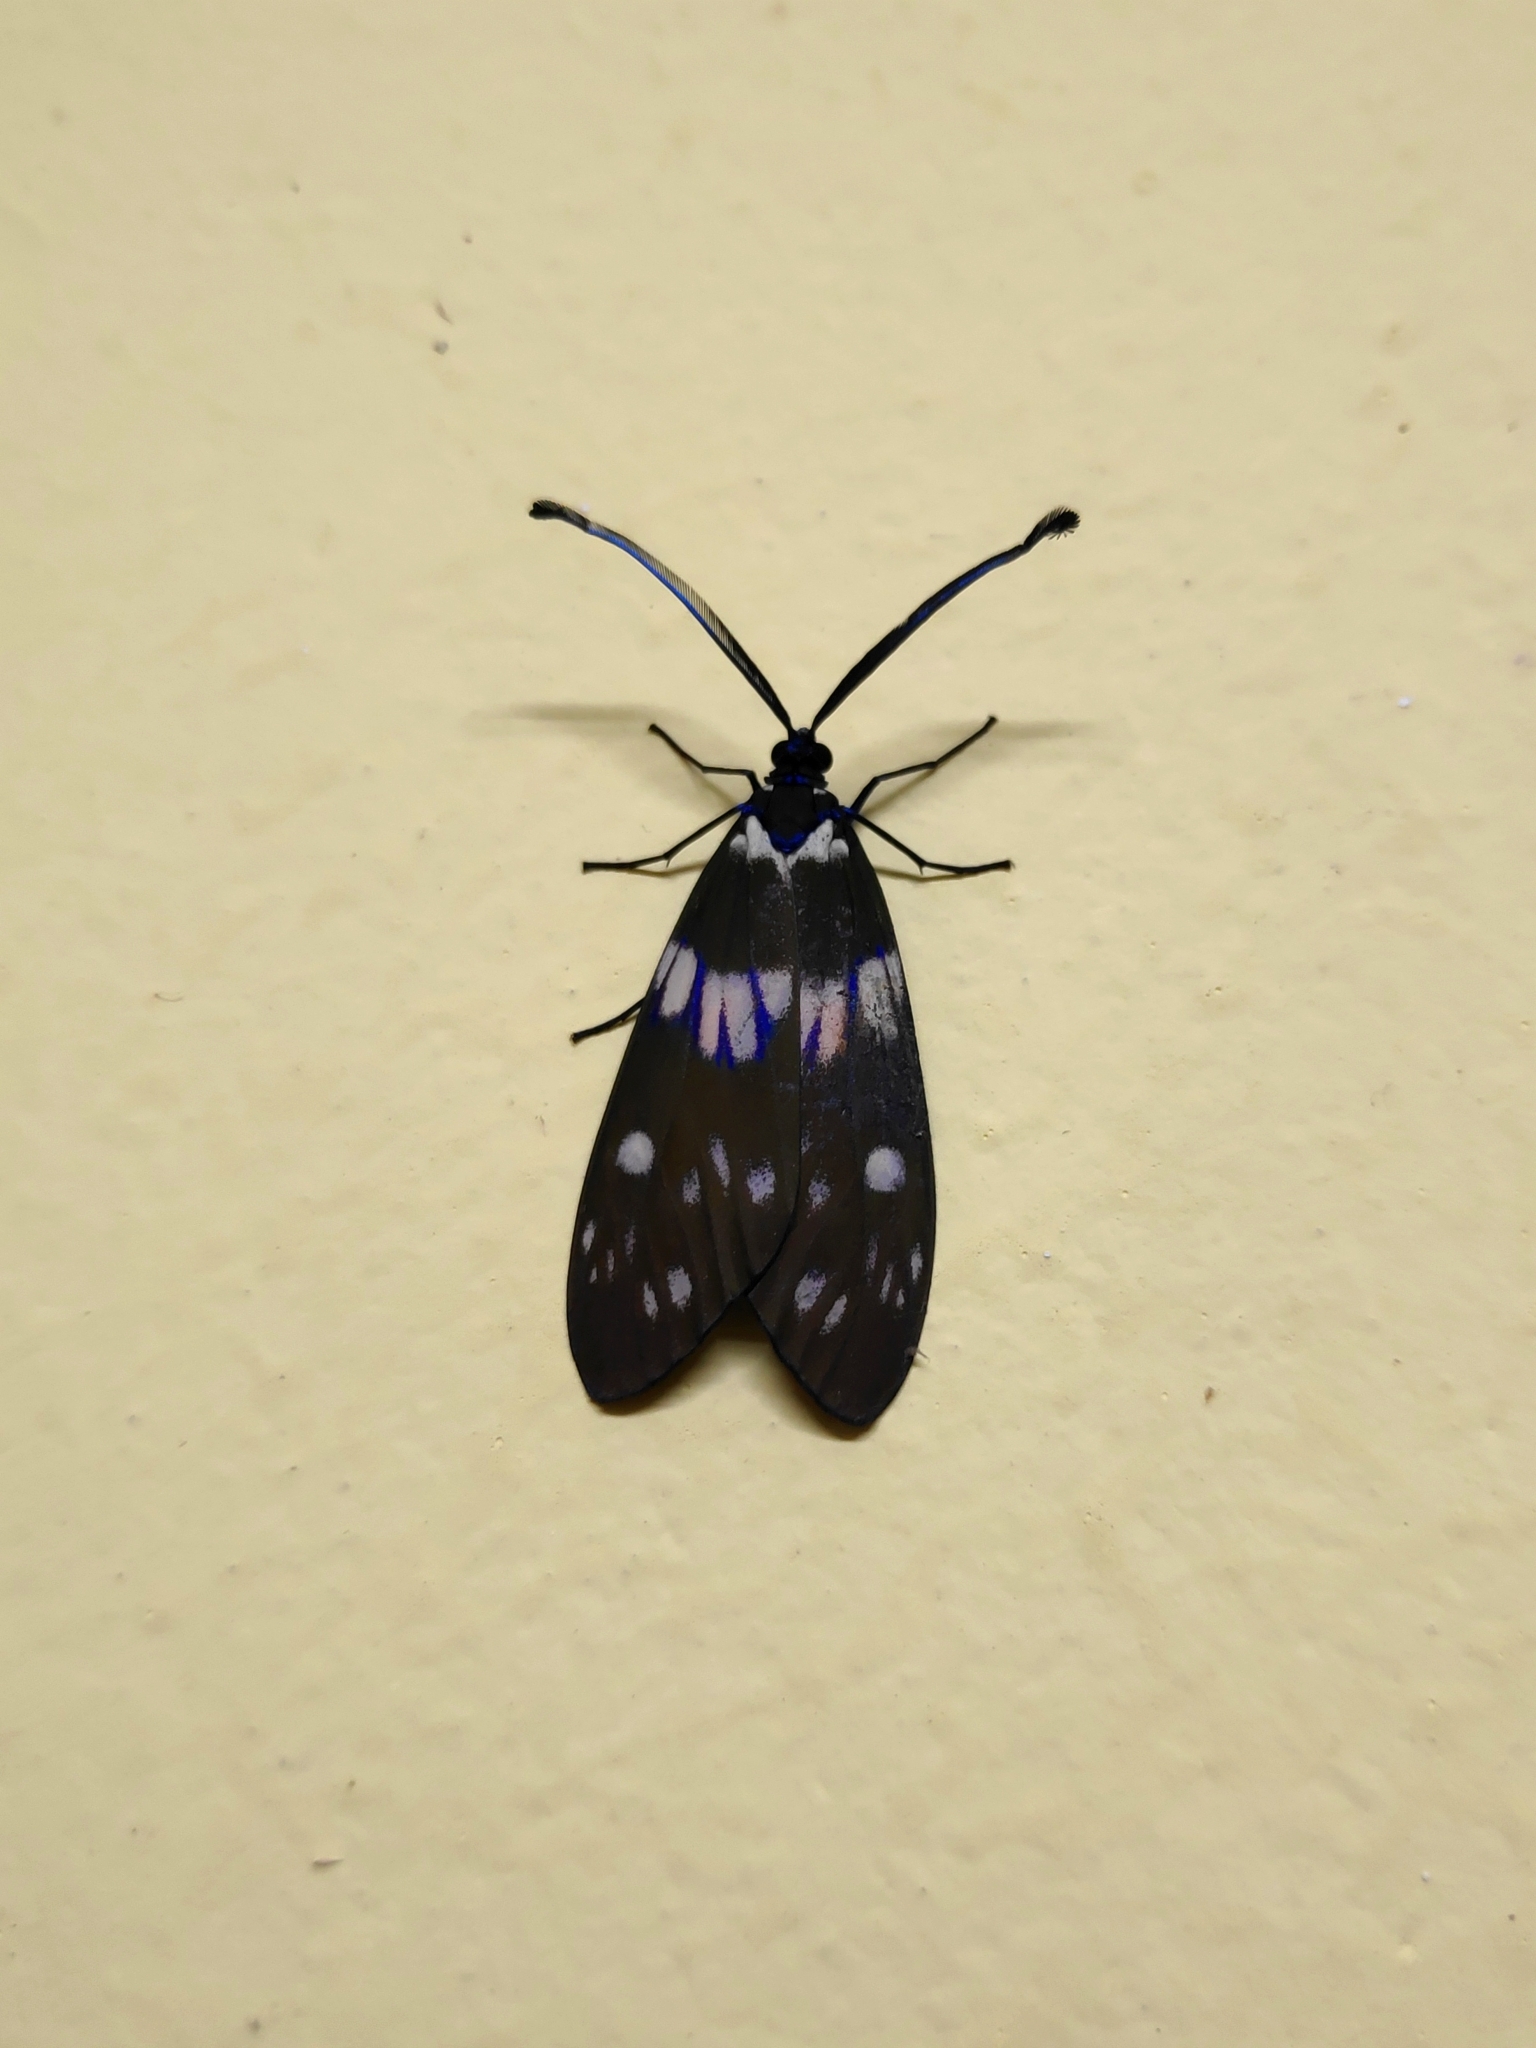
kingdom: Animalia
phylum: Arthropoda
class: Insecta
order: Lepidoptera
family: Zygaenidae
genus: Eterusia
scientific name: Eterusia aedea
